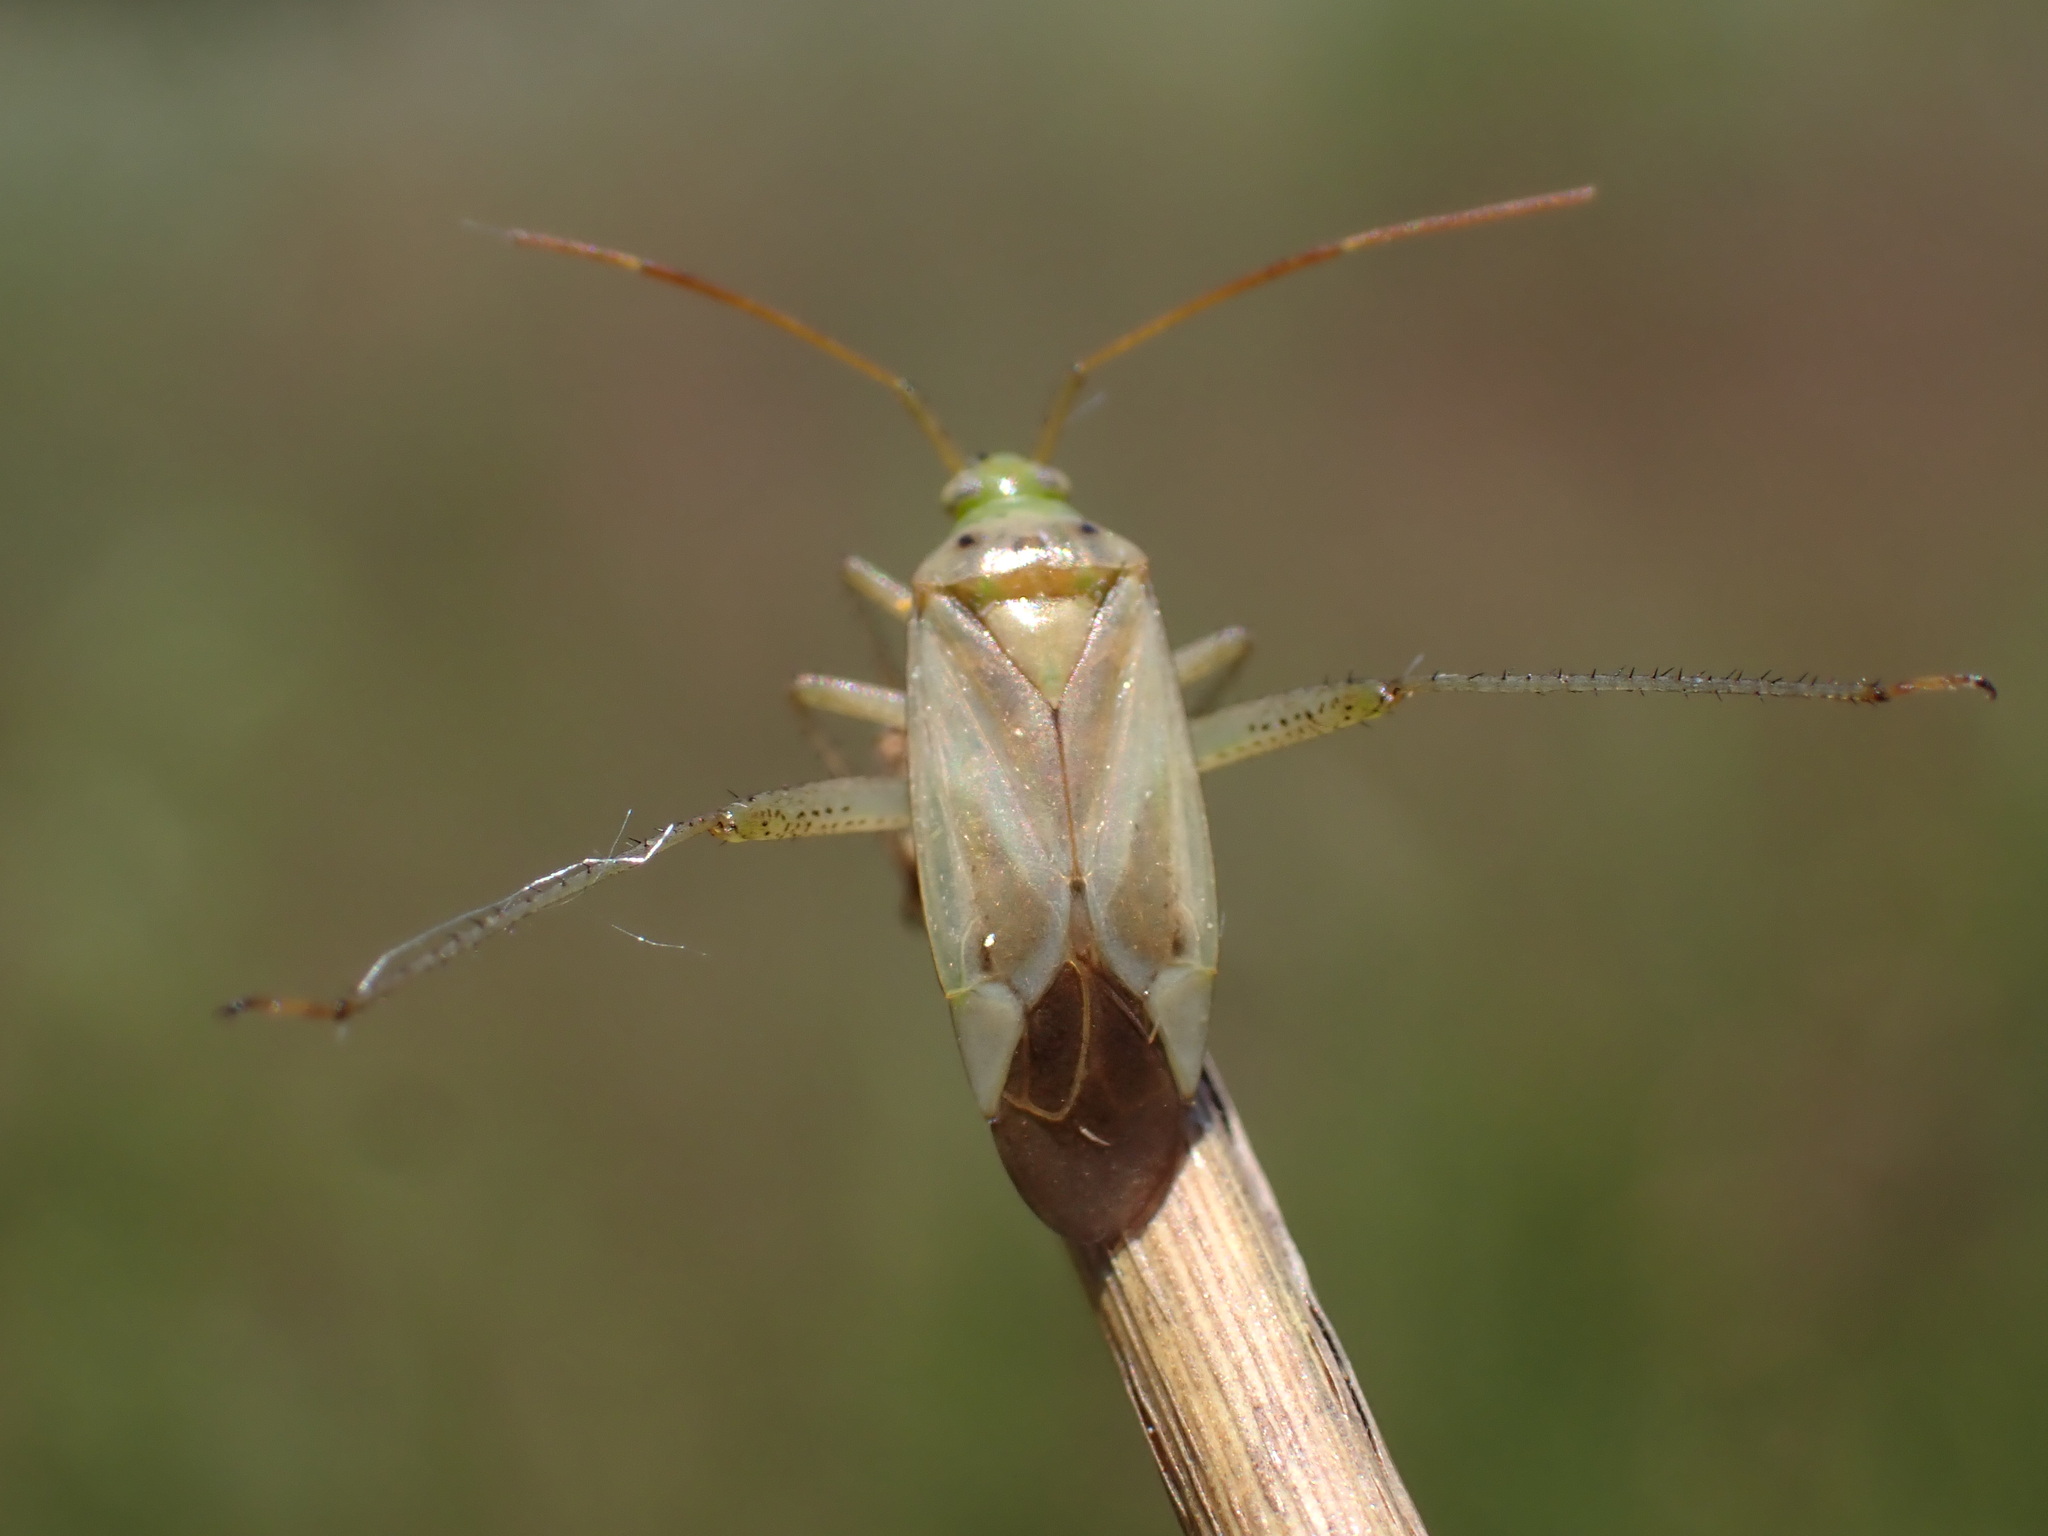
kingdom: Animalia
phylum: Arthropoda
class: Insecta
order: Hemiptera
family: Miridae
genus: Adelphocoris
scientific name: Adelphocoris lineolatus
